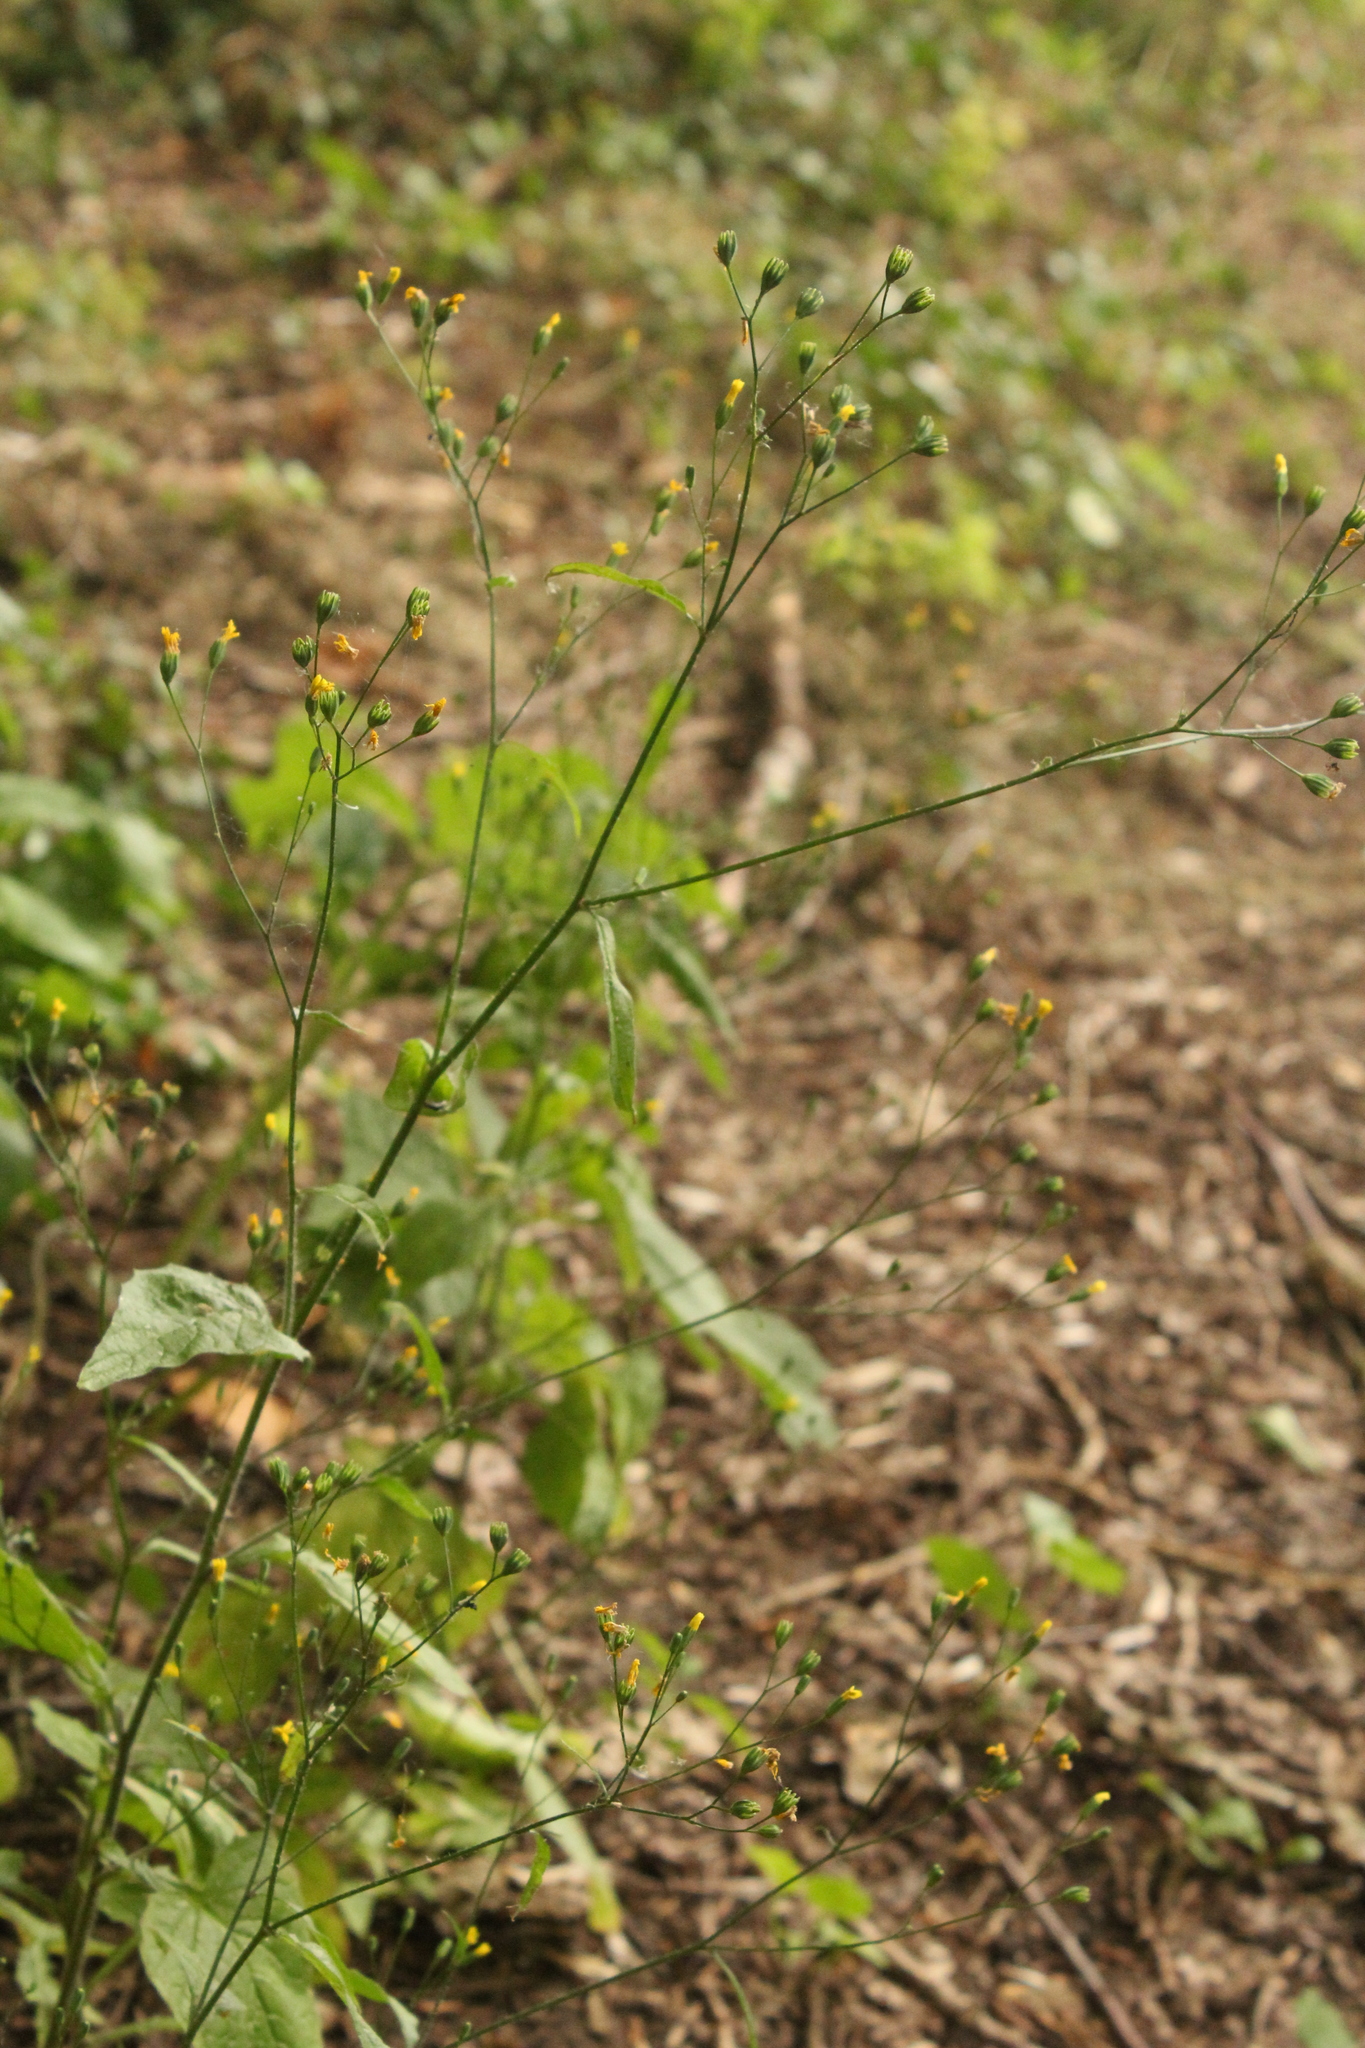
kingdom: Plantae
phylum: Tracheophyta
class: Magnoliopsida
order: Asterales
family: Asteraceae
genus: Lapsana
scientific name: Lapsana communis
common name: Nipplewort
